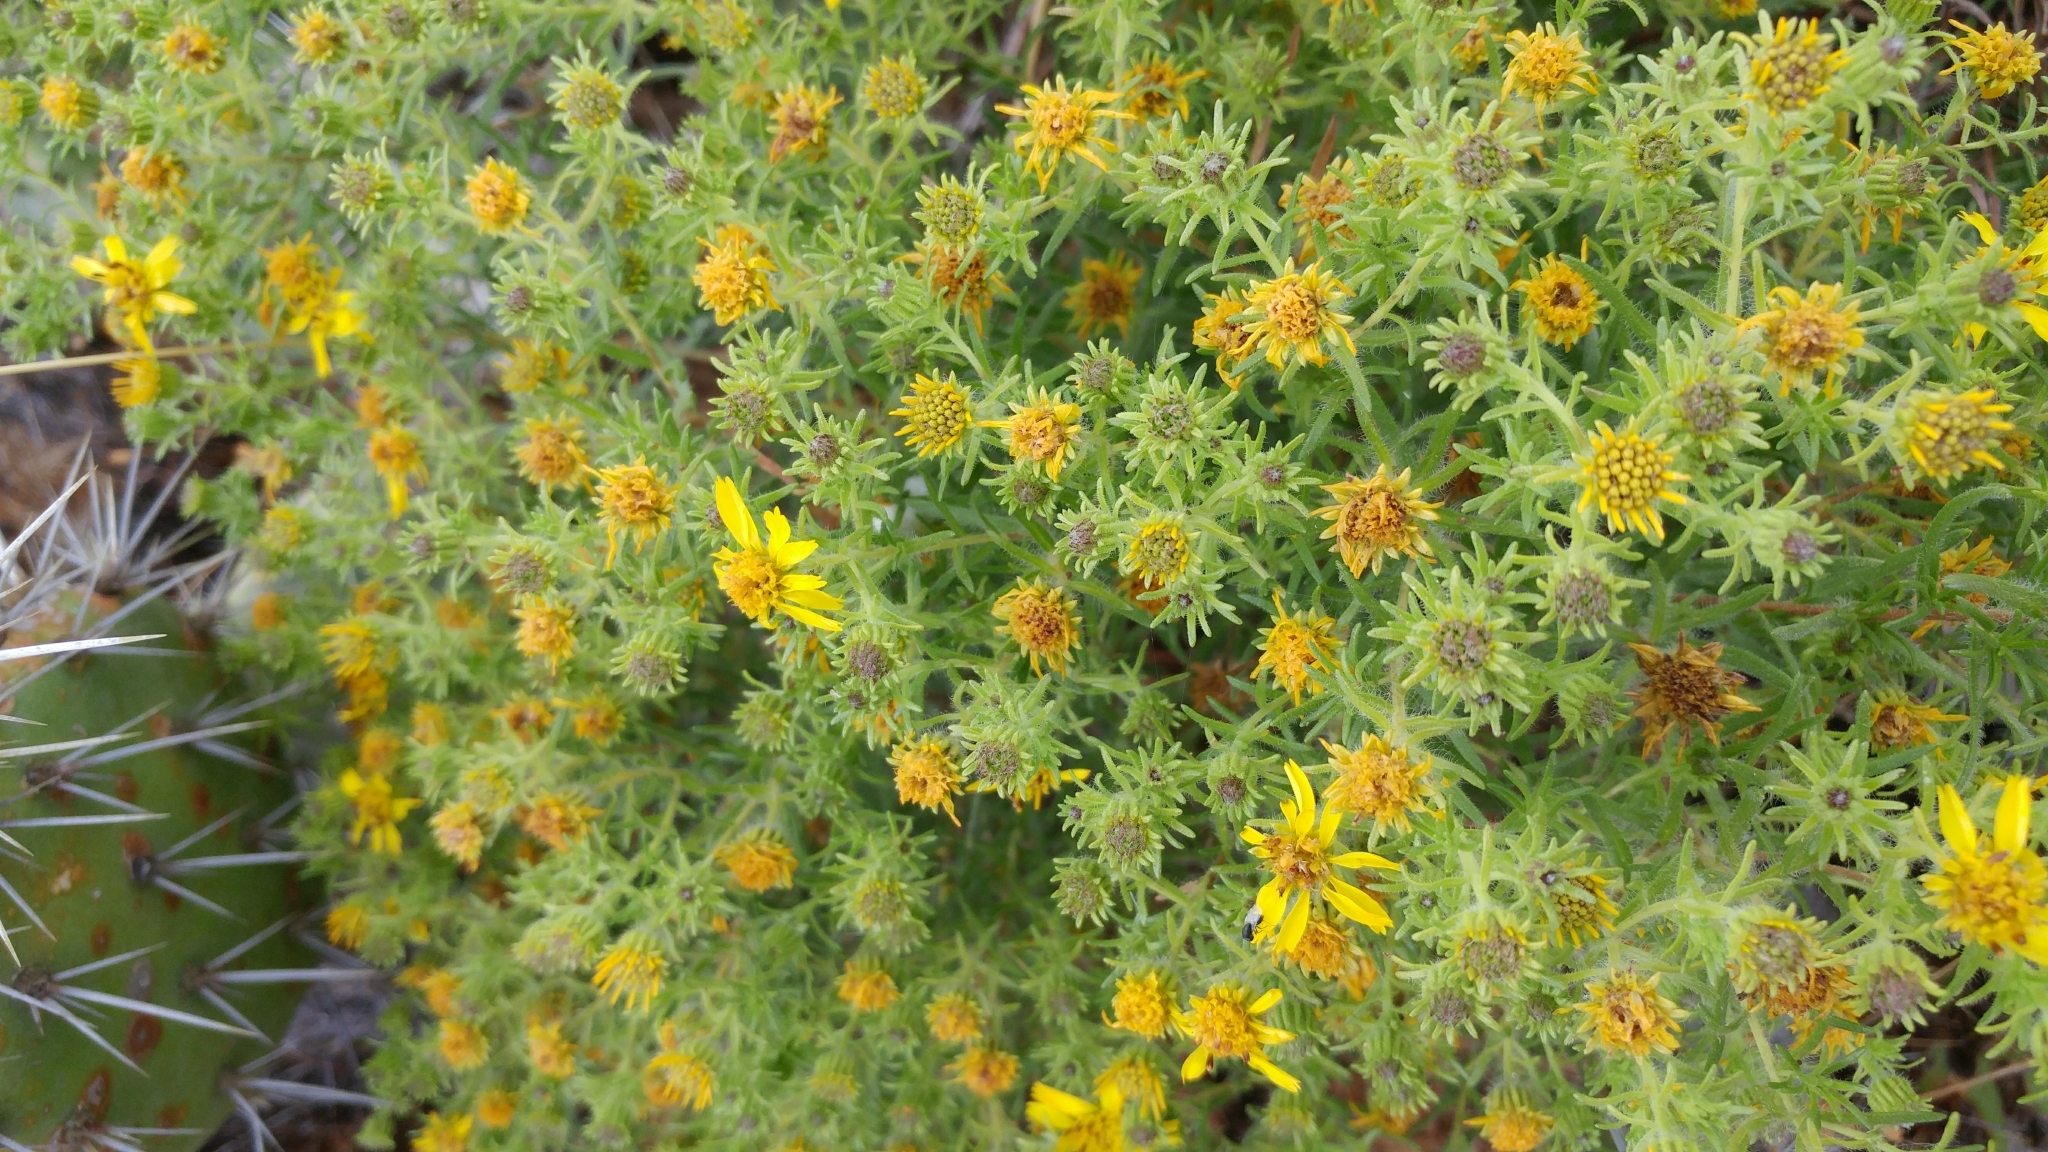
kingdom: Plantae
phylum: Tracheophyta
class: Magnoliopsida
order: Asterales
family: Asteraceae
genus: Deinandra
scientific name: Deinandra clementina
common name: Island tarplant
